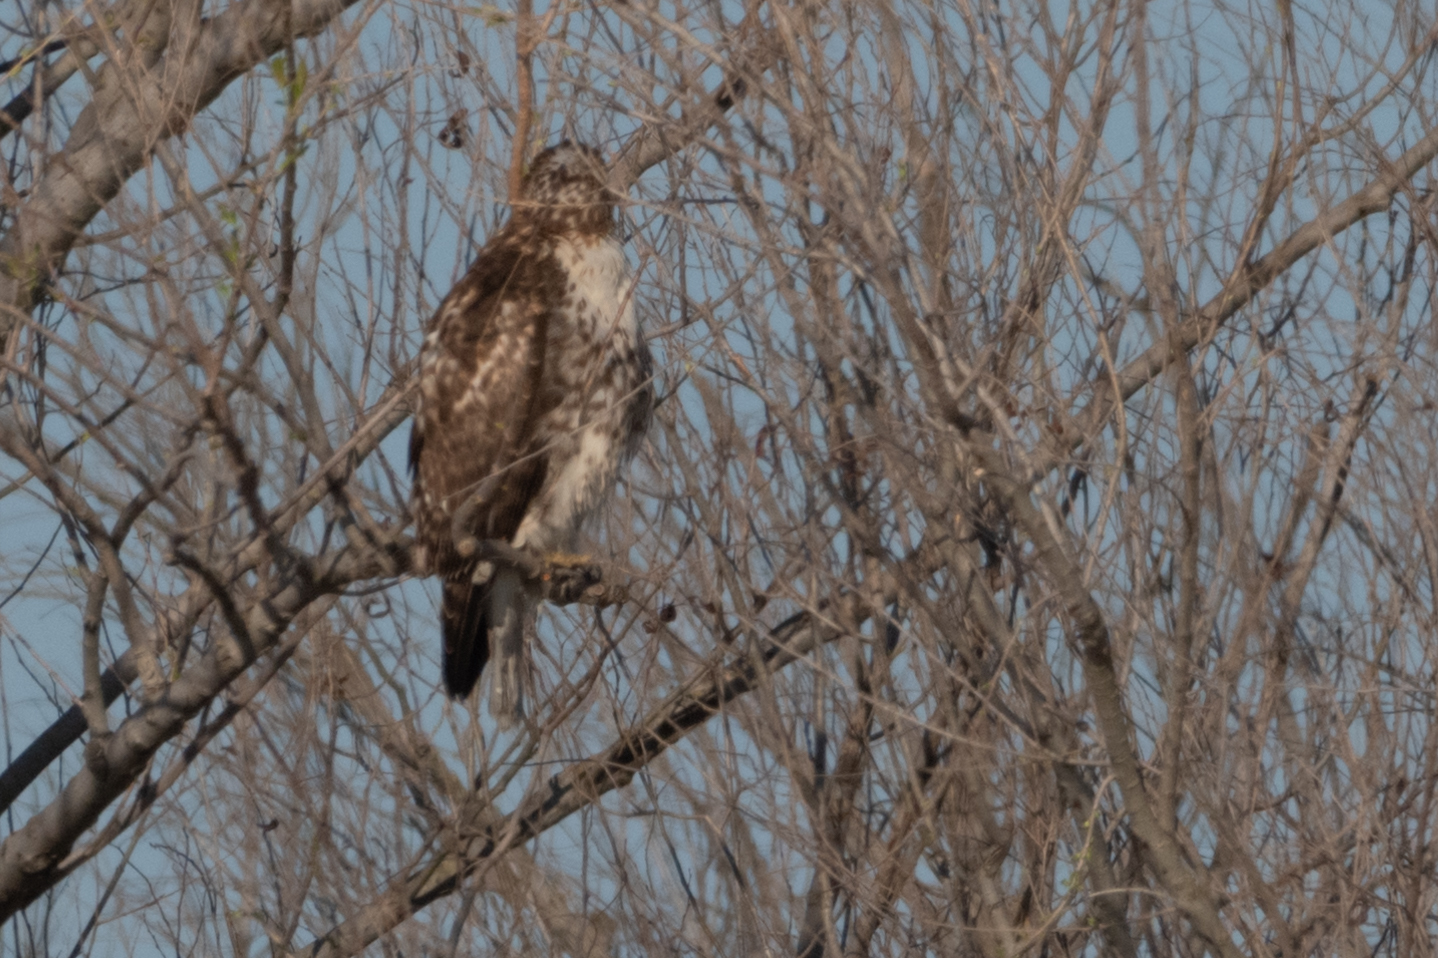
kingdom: Animalia
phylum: Chordata
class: Aves
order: Accipitriformes
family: Accipitridae
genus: Buteo
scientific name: Buteo jamaicensis
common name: Red-tailed hawk
